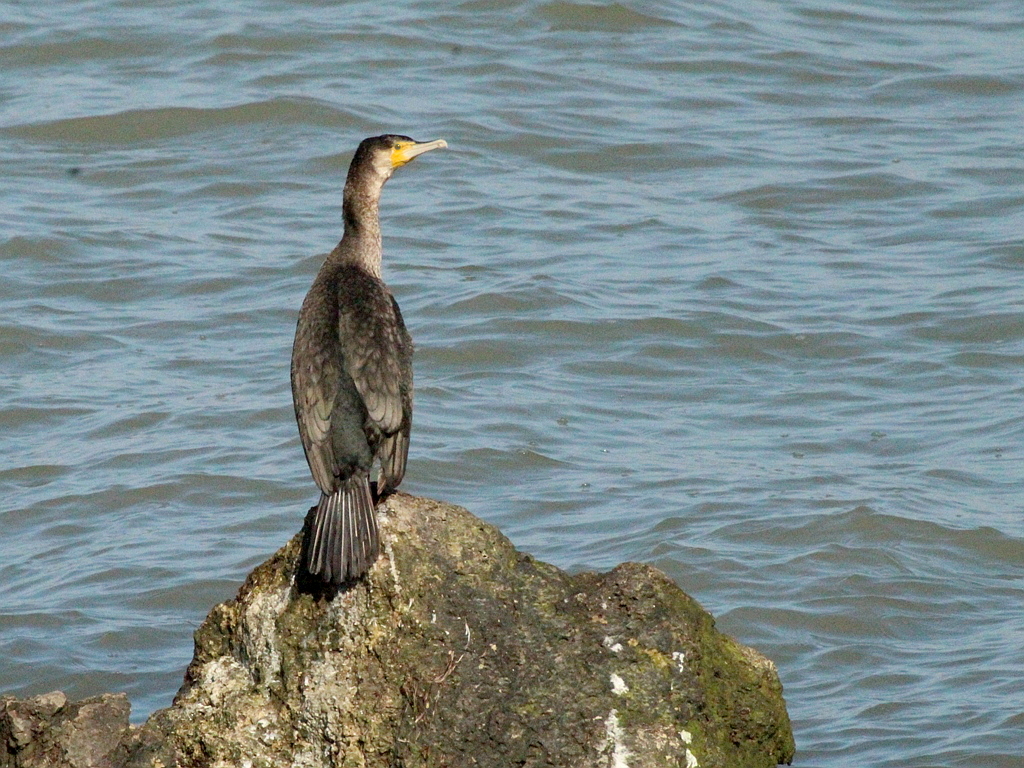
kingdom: Animalia
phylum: Chordata
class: Aves
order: Suliformes
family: Phalacrocoracidae
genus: Phalacrocorax
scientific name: Phalacrocorax carbo
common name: Great cormorant
